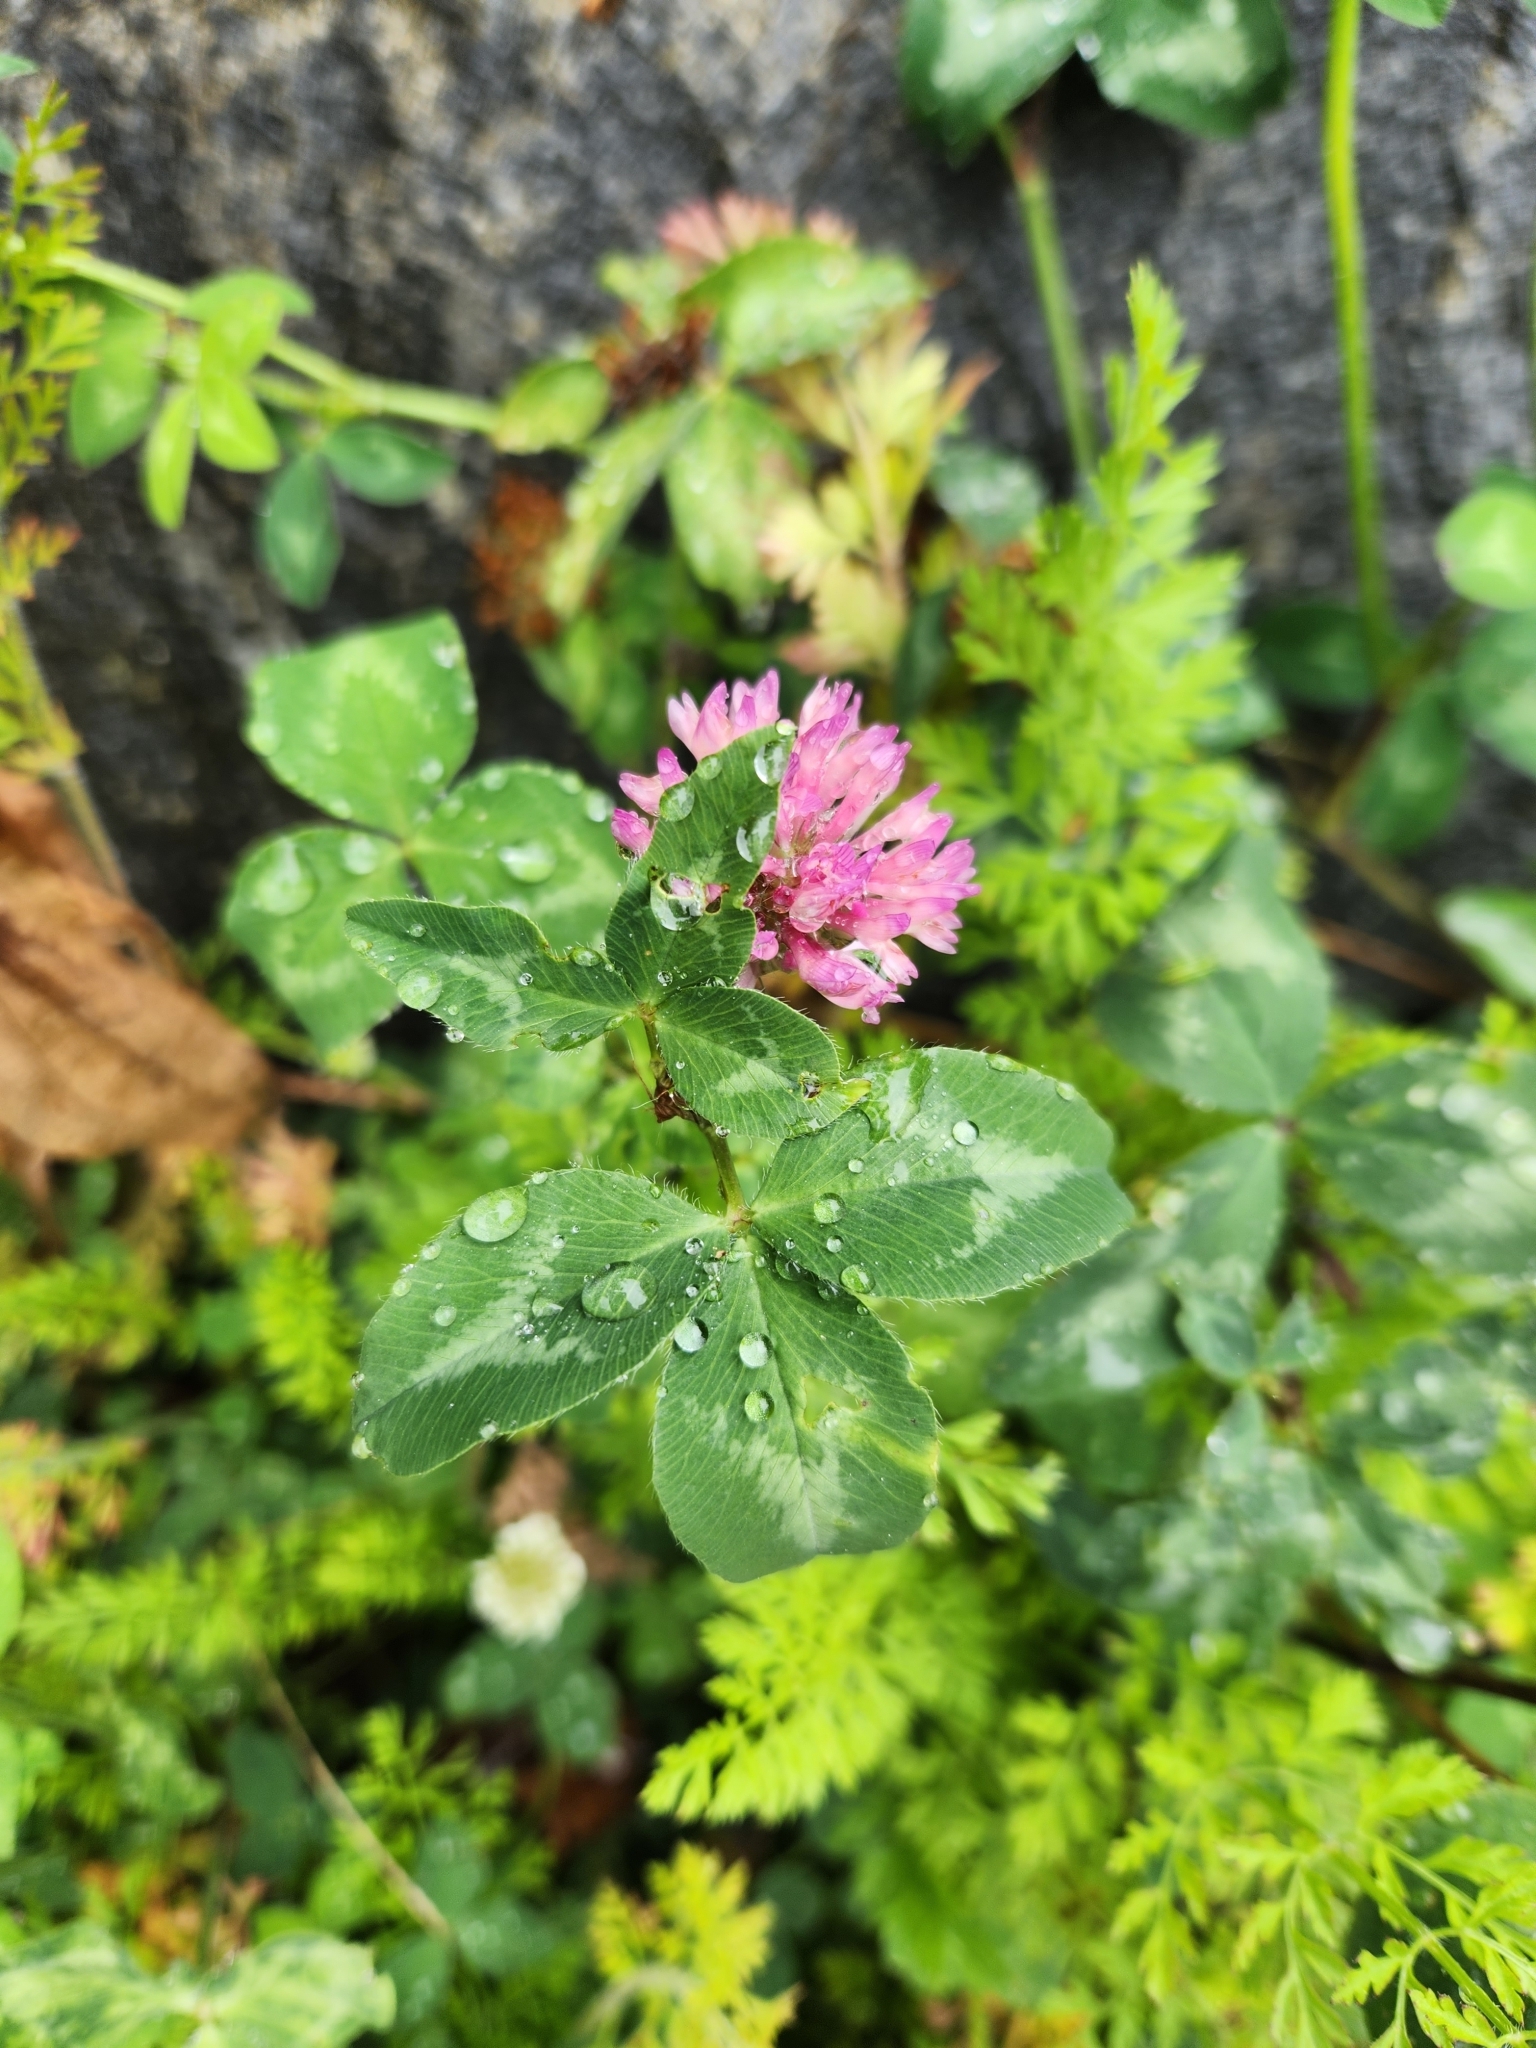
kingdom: Plantae
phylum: Tracheophyta
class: Magnoliopsida
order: Fabales
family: Fabaceae
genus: Trifolium
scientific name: Trifolium pratense
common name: Red clover
